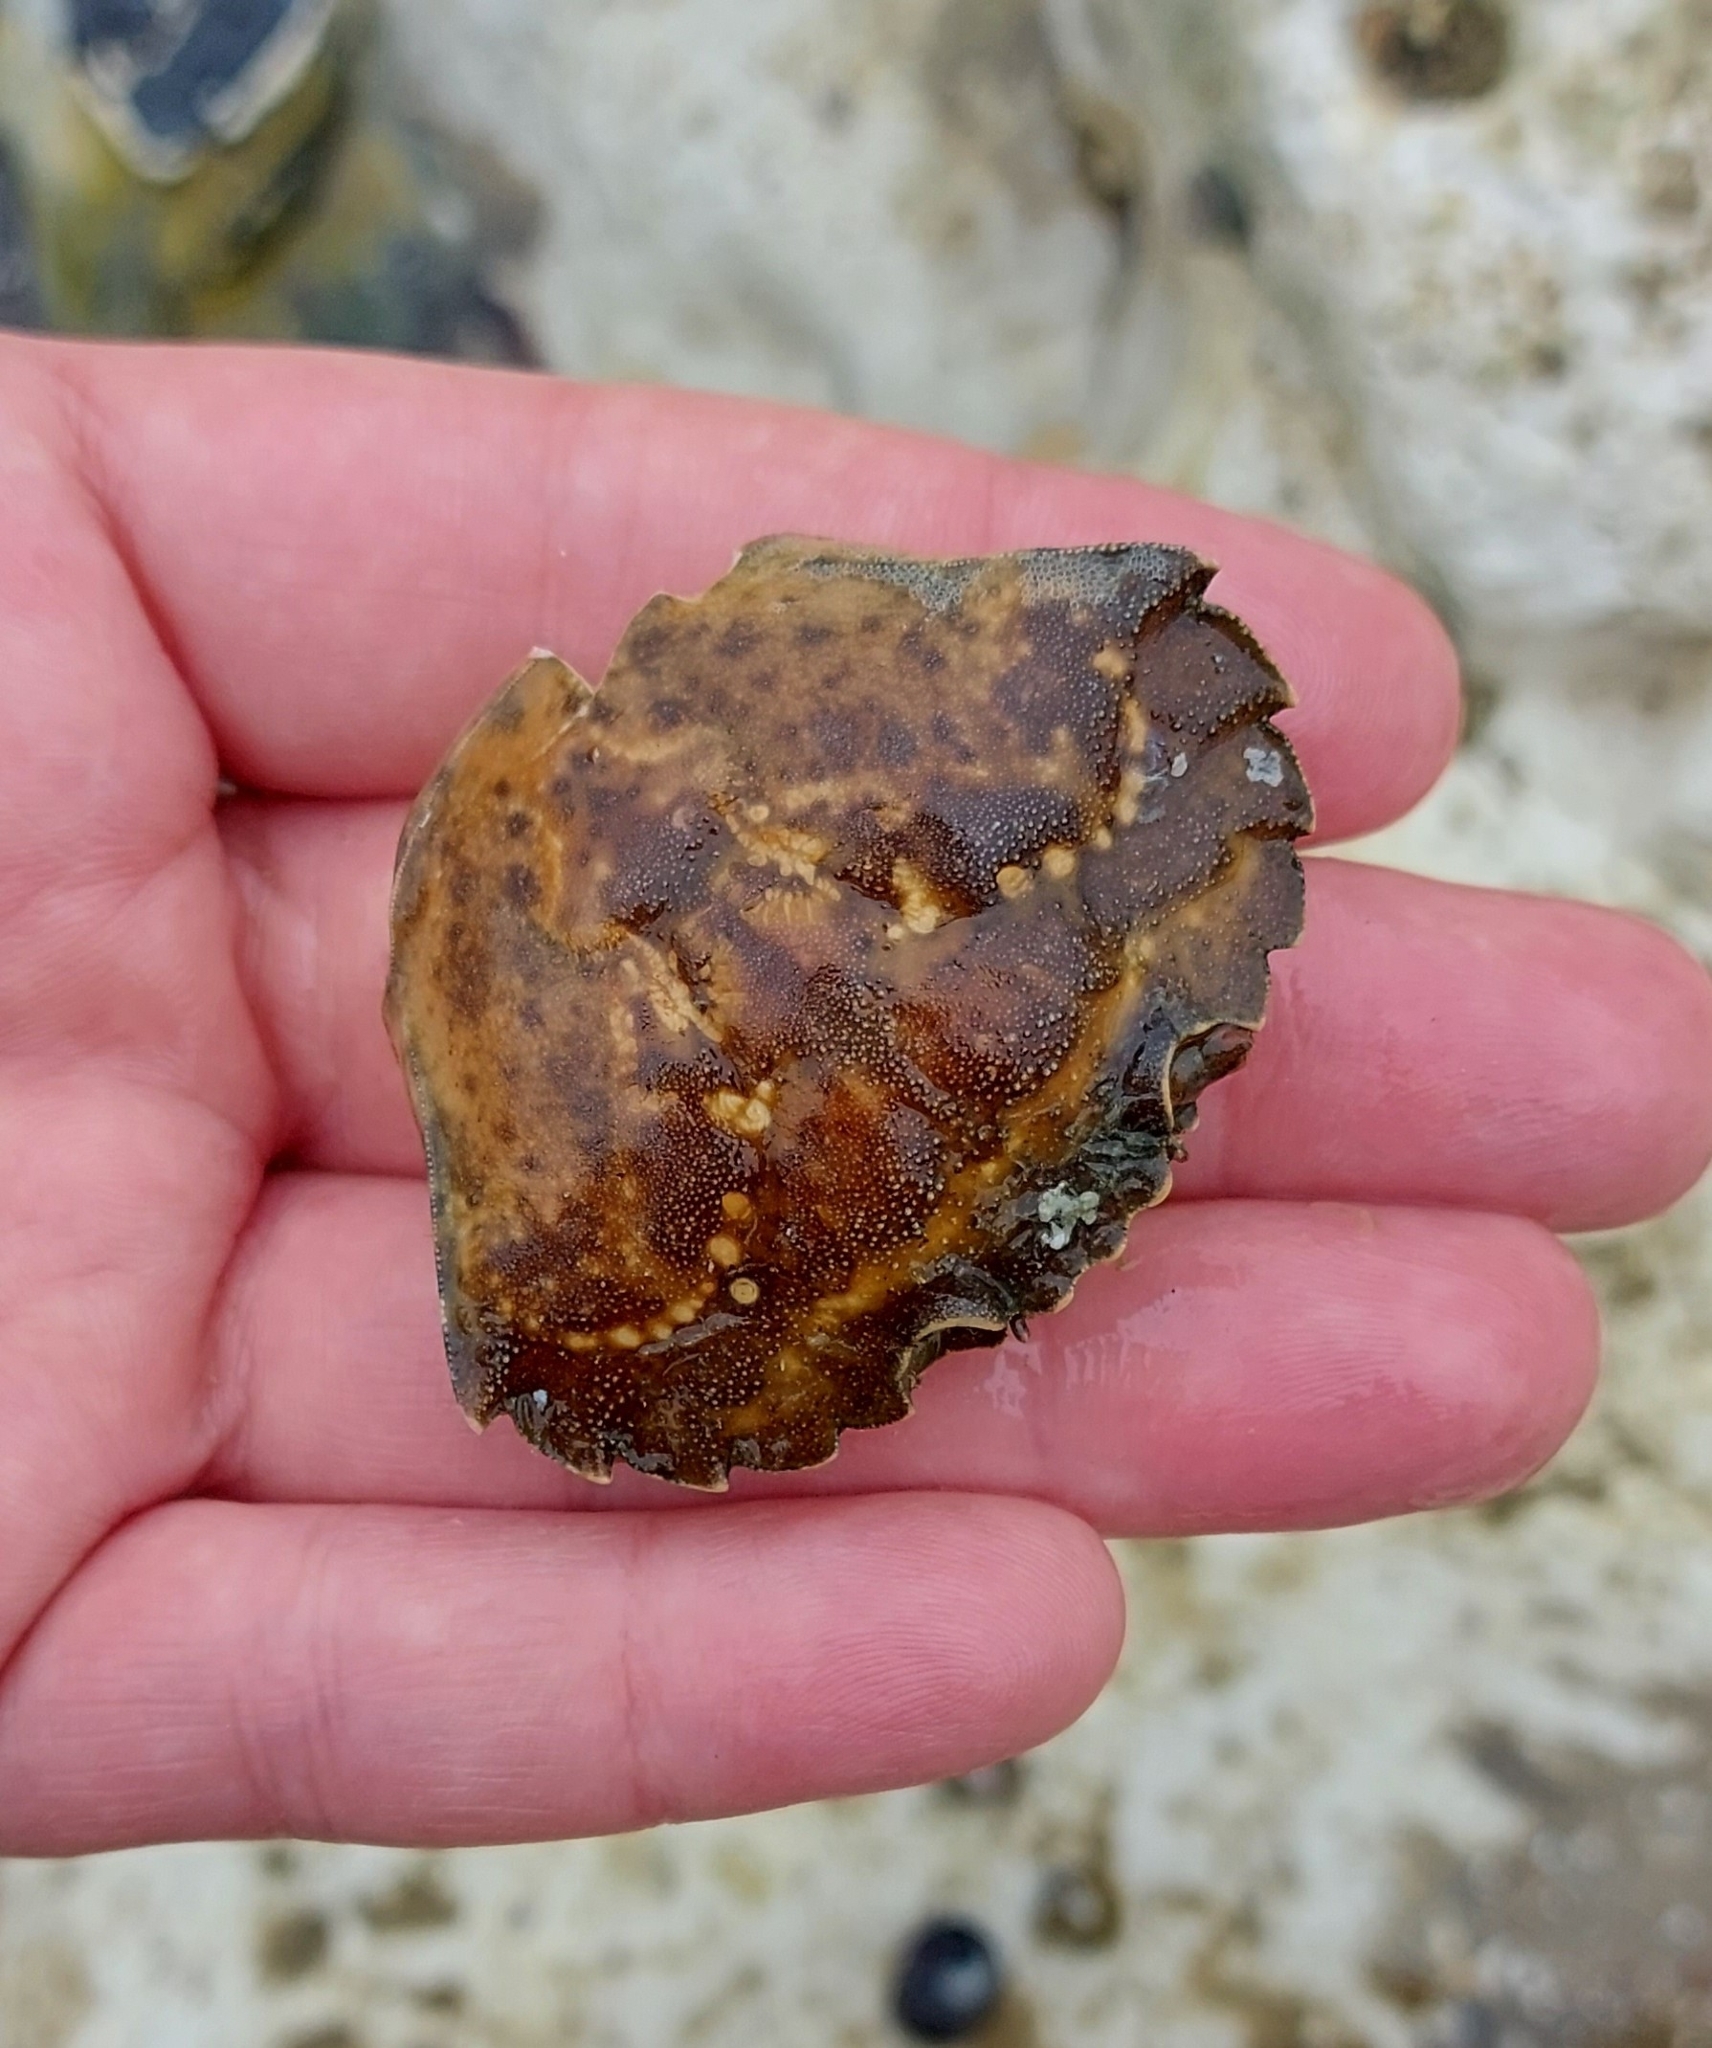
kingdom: Animalia
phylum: Arthropoda
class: Malacostraca
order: Decapoda
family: Carcinidae
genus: Carcinus
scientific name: Carcinus maenas
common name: European green crab
